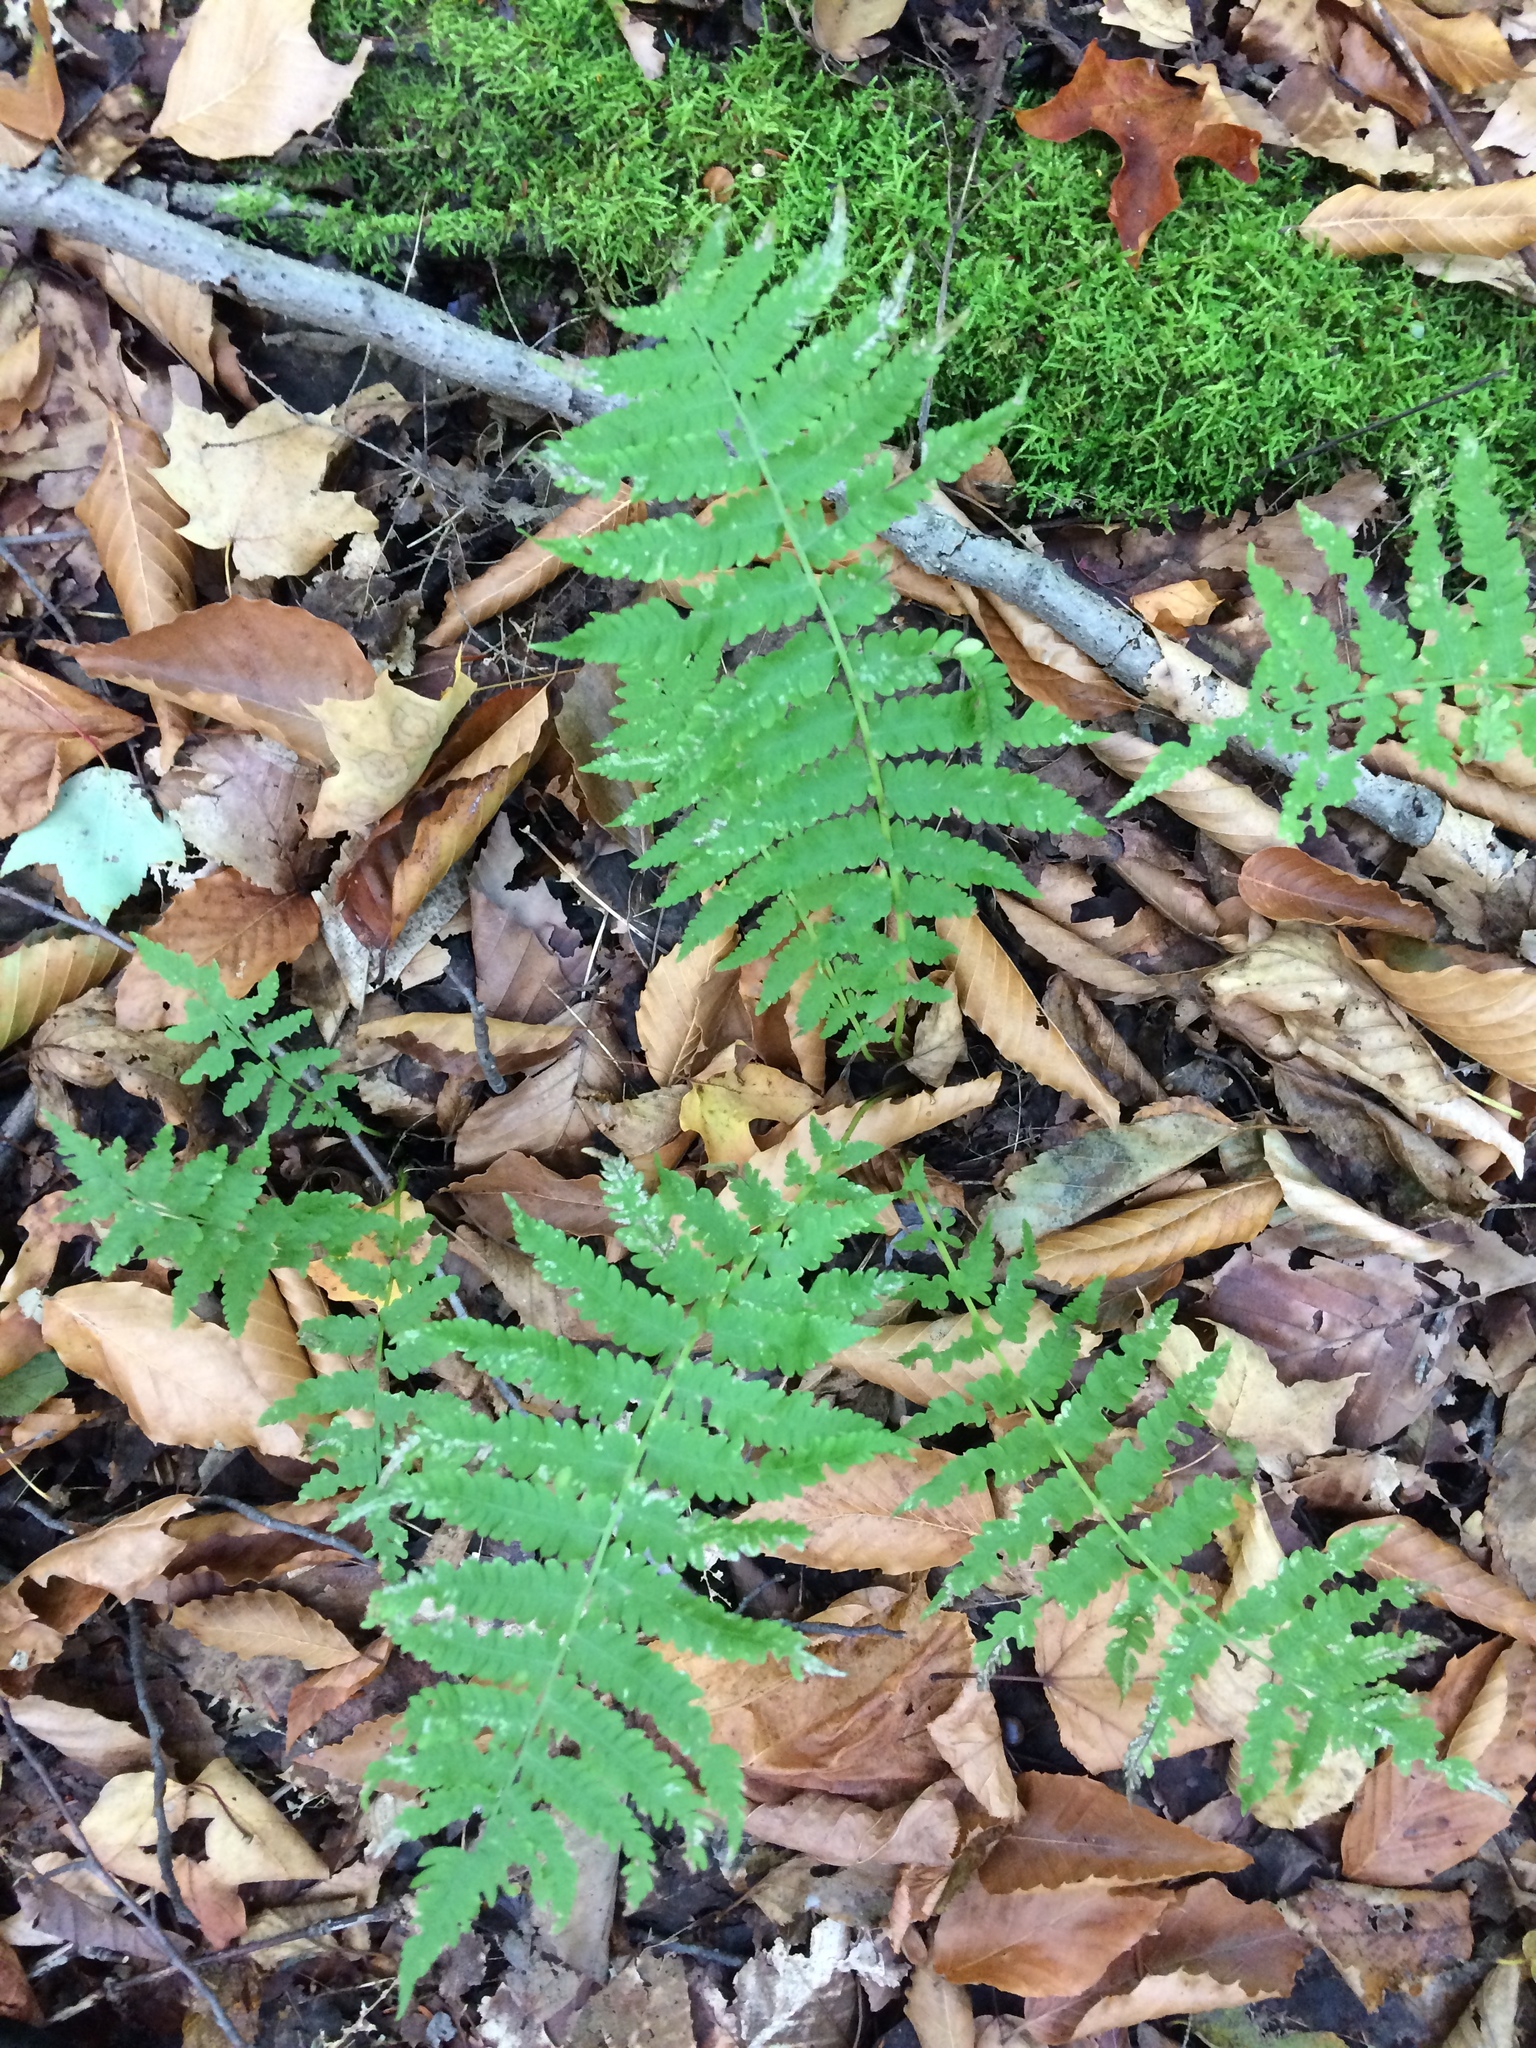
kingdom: Plantae
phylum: Tracheophyta
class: Polypodiopsida
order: Polypodiales
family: Thelypteridaceae
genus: Amauropelta
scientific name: Amauropelta noveboracensis
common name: New york fern
